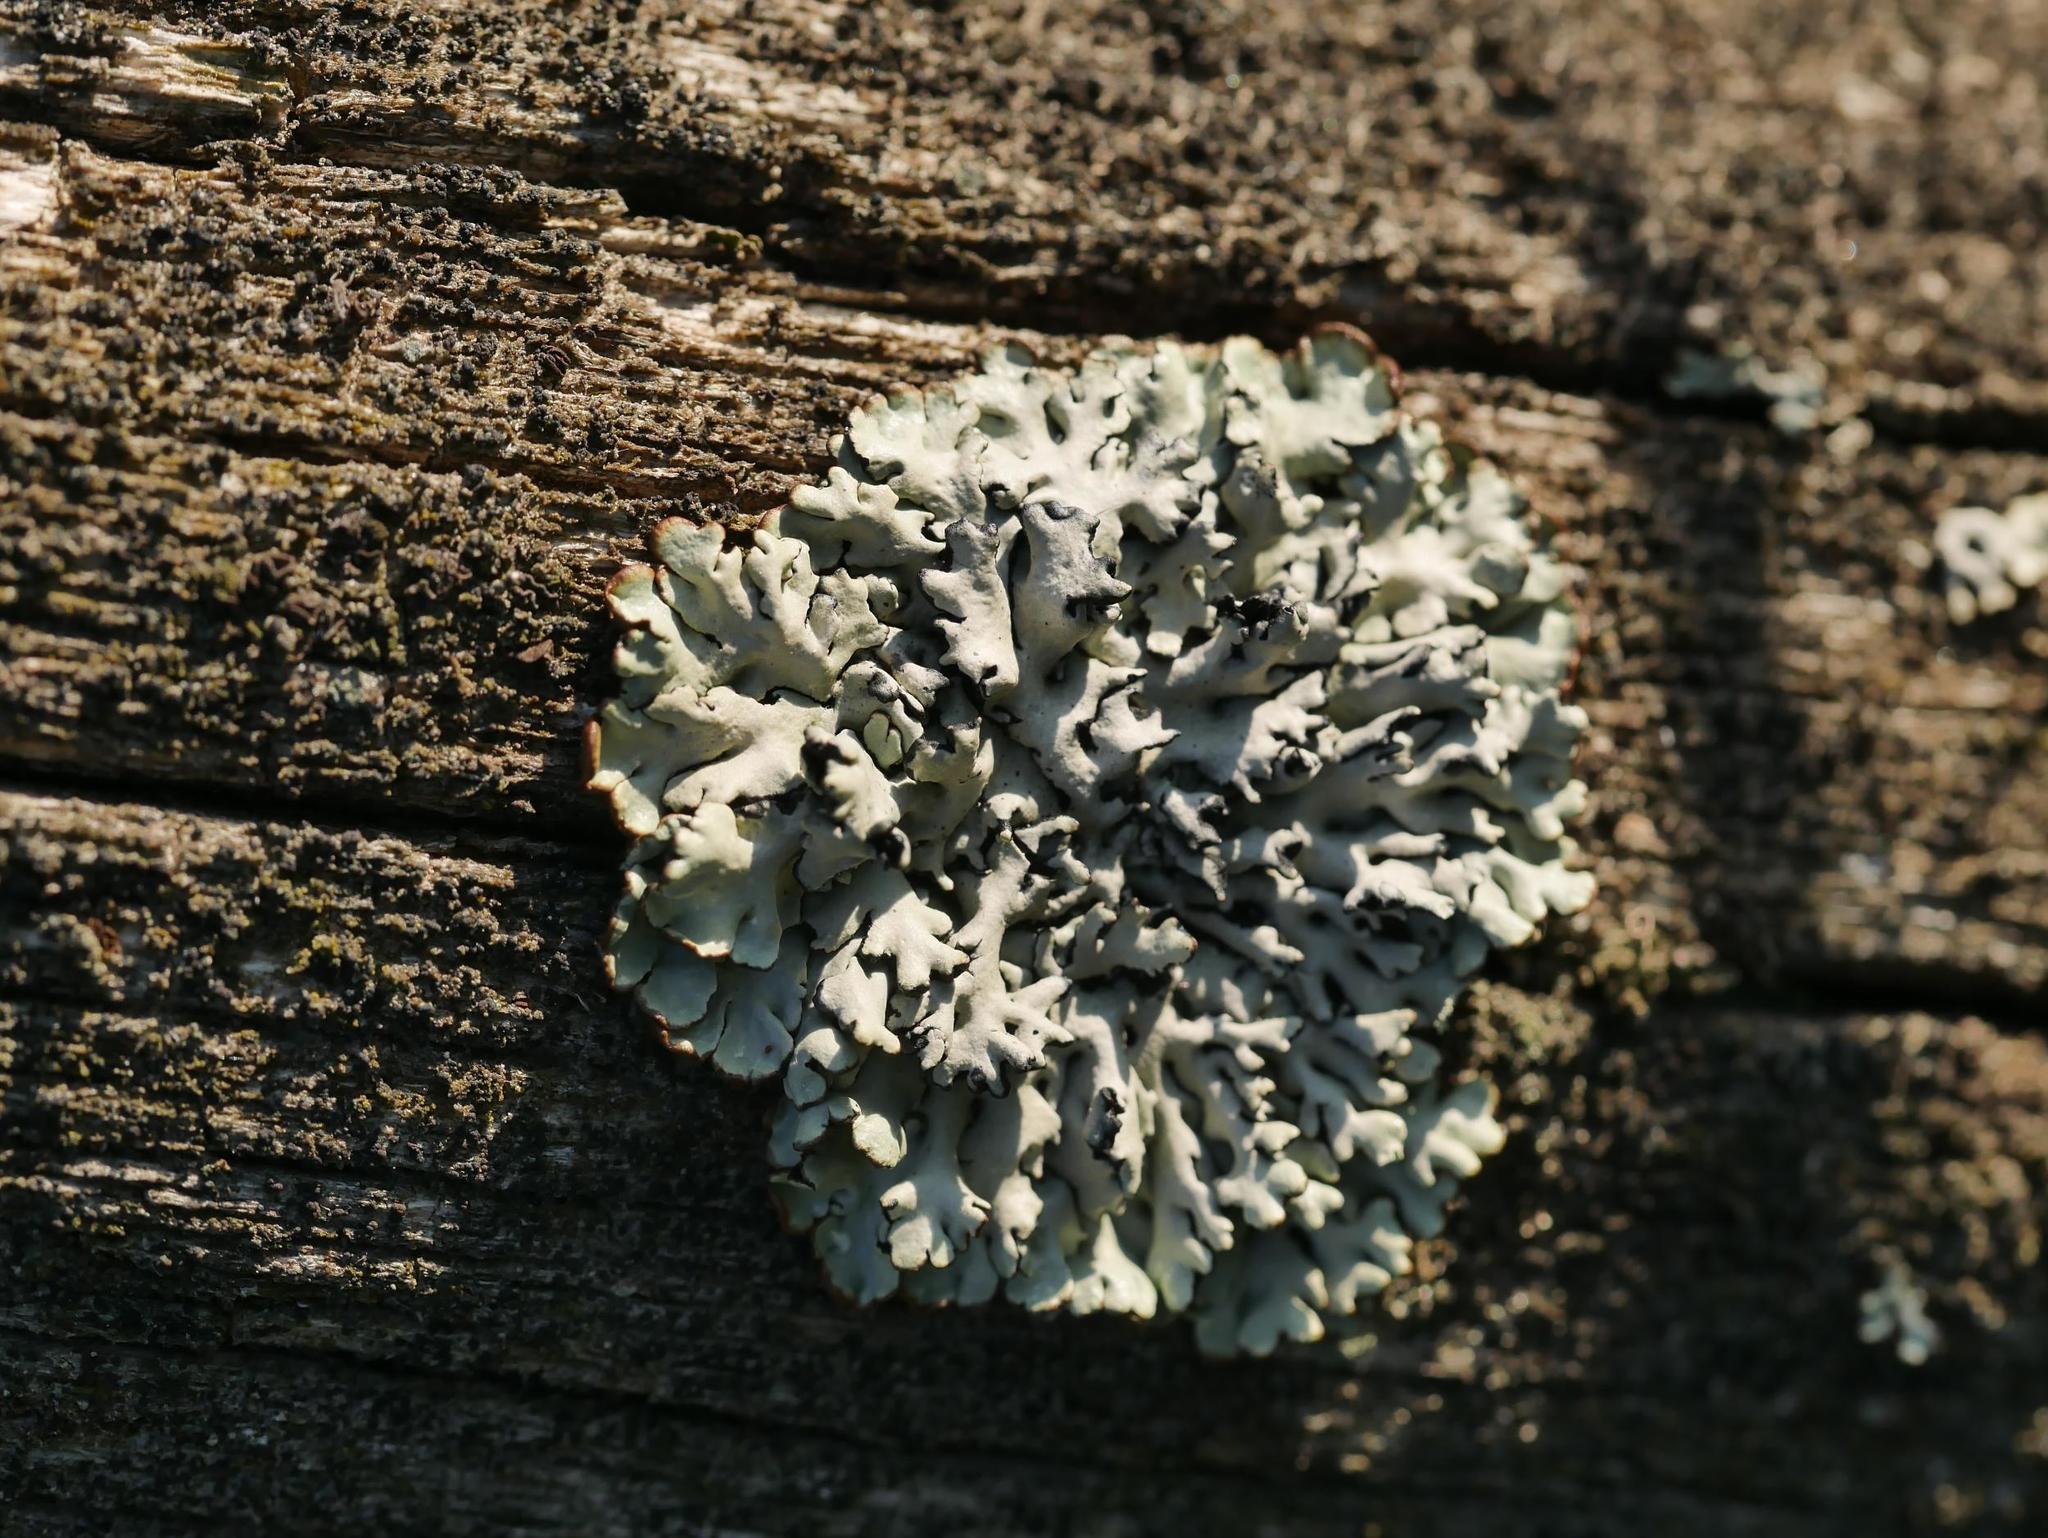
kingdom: Fungi
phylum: Ascomycota
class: Lecanoromycetes
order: Lecanorales
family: Parmeliaceae
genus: Hypogymnia
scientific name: Hypogymnia physodes
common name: Dark crottle
